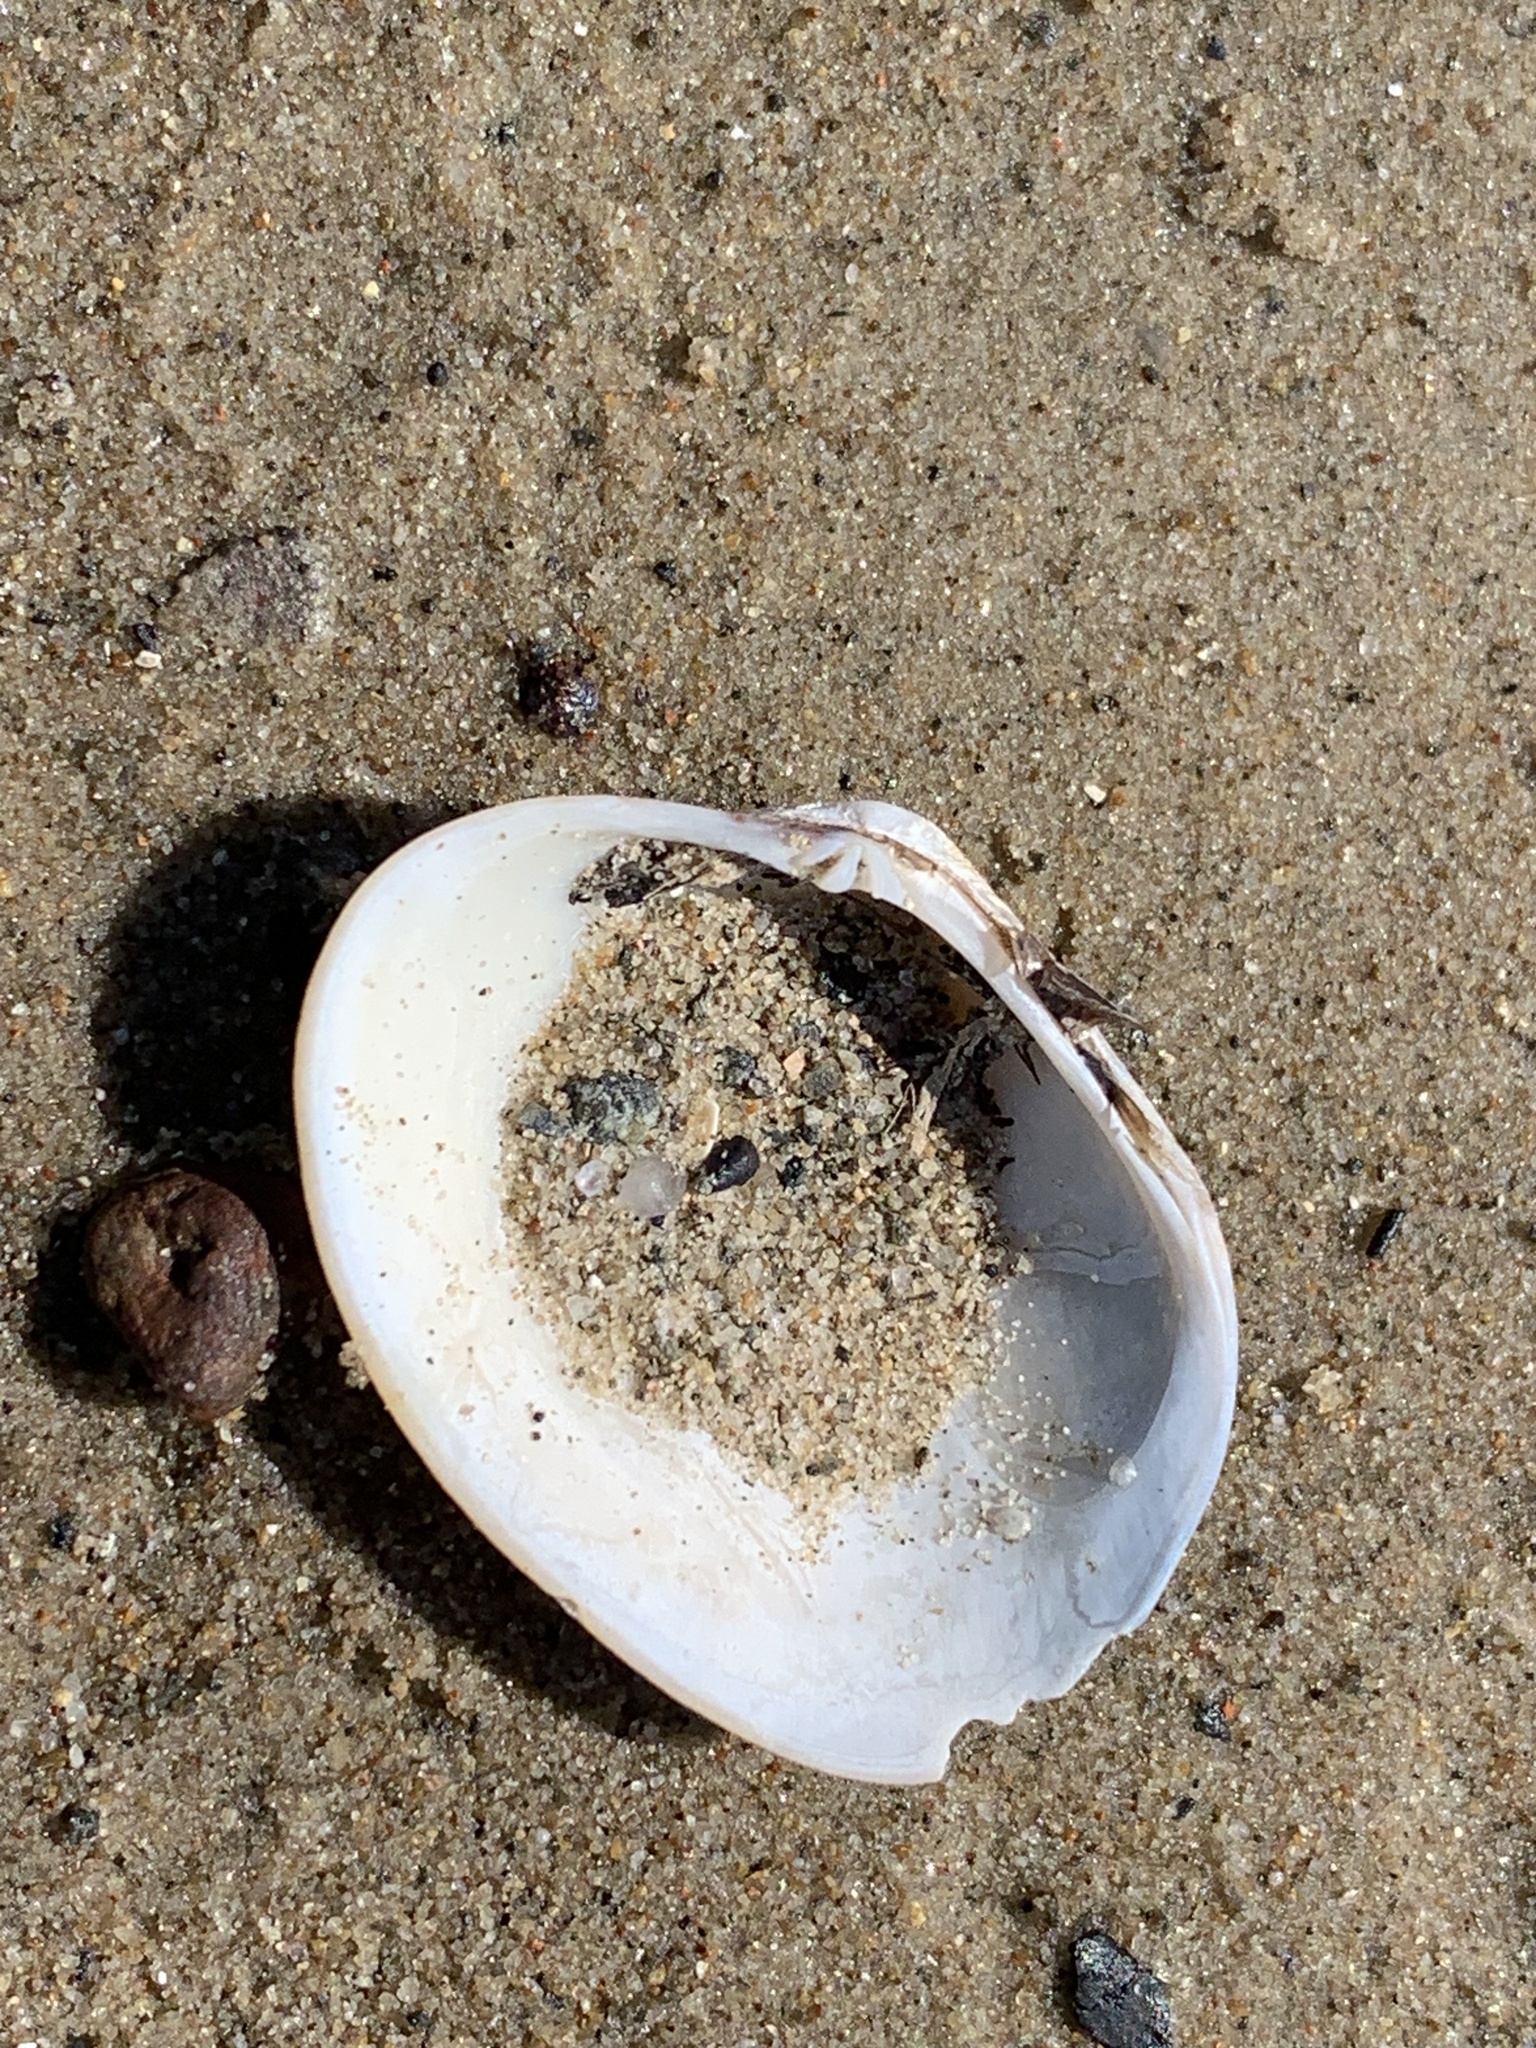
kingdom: Animalia
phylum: Mollusca
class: Bivalvia
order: Venerida
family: Veneridae
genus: Venerupis
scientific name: Venerupis largillierti
